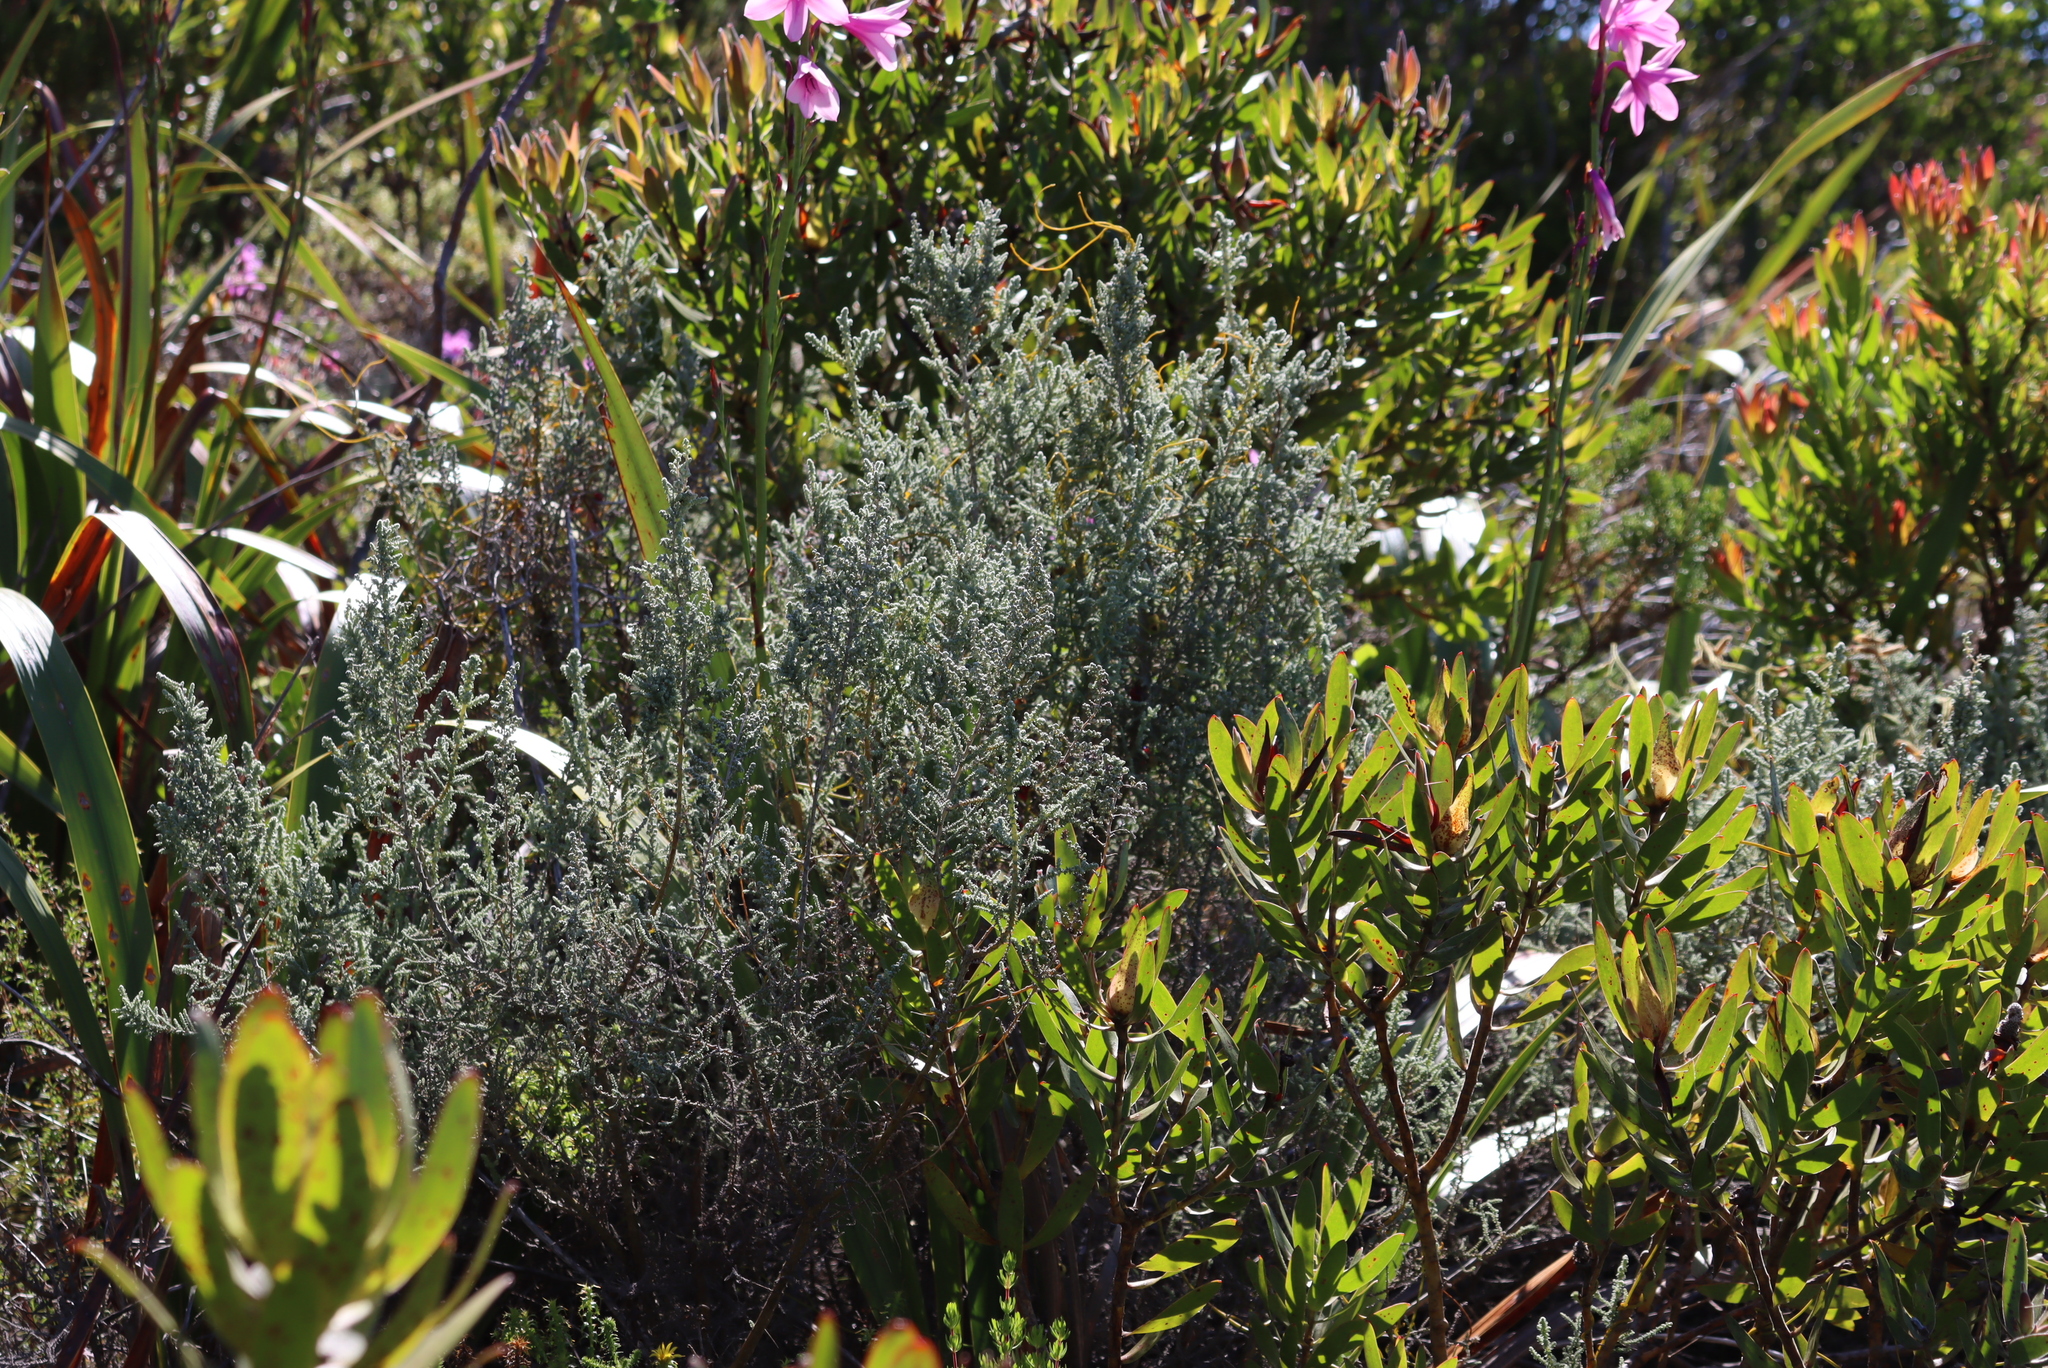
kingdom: Plantae
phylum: Tracheophyta
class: Magnoliopsida
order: Asterales
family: Asteraceae
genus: Seriphium
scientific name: Seriphium plumosum
